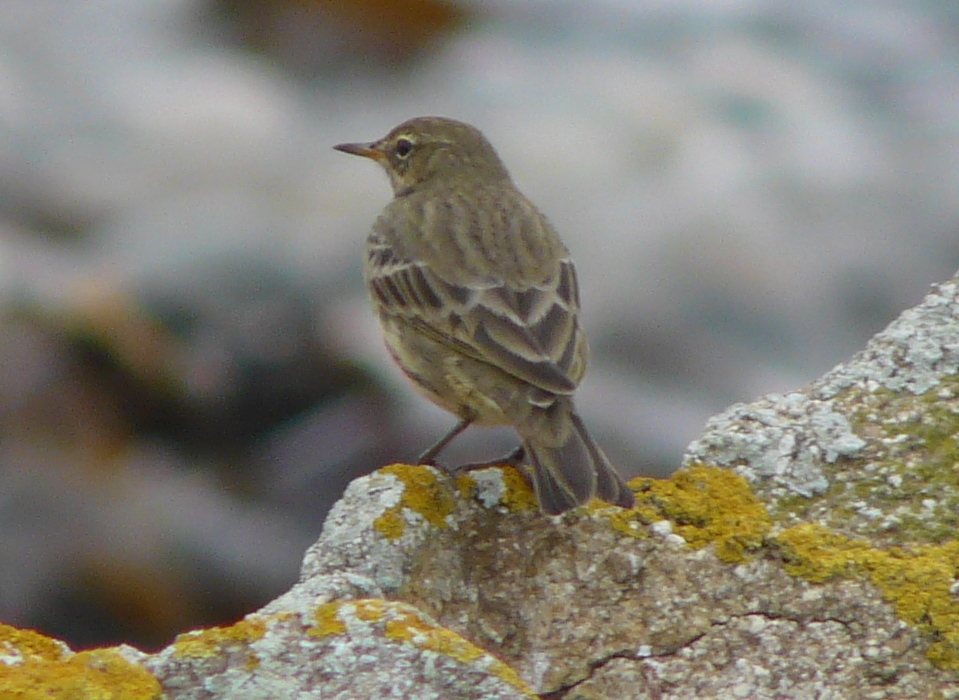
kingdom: Animalia
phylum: Chordata
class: Aves
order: Passeriformes
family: Motacillidae
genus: Anthus
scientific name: Anthus petrosus
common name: Eurasian rock pipit
